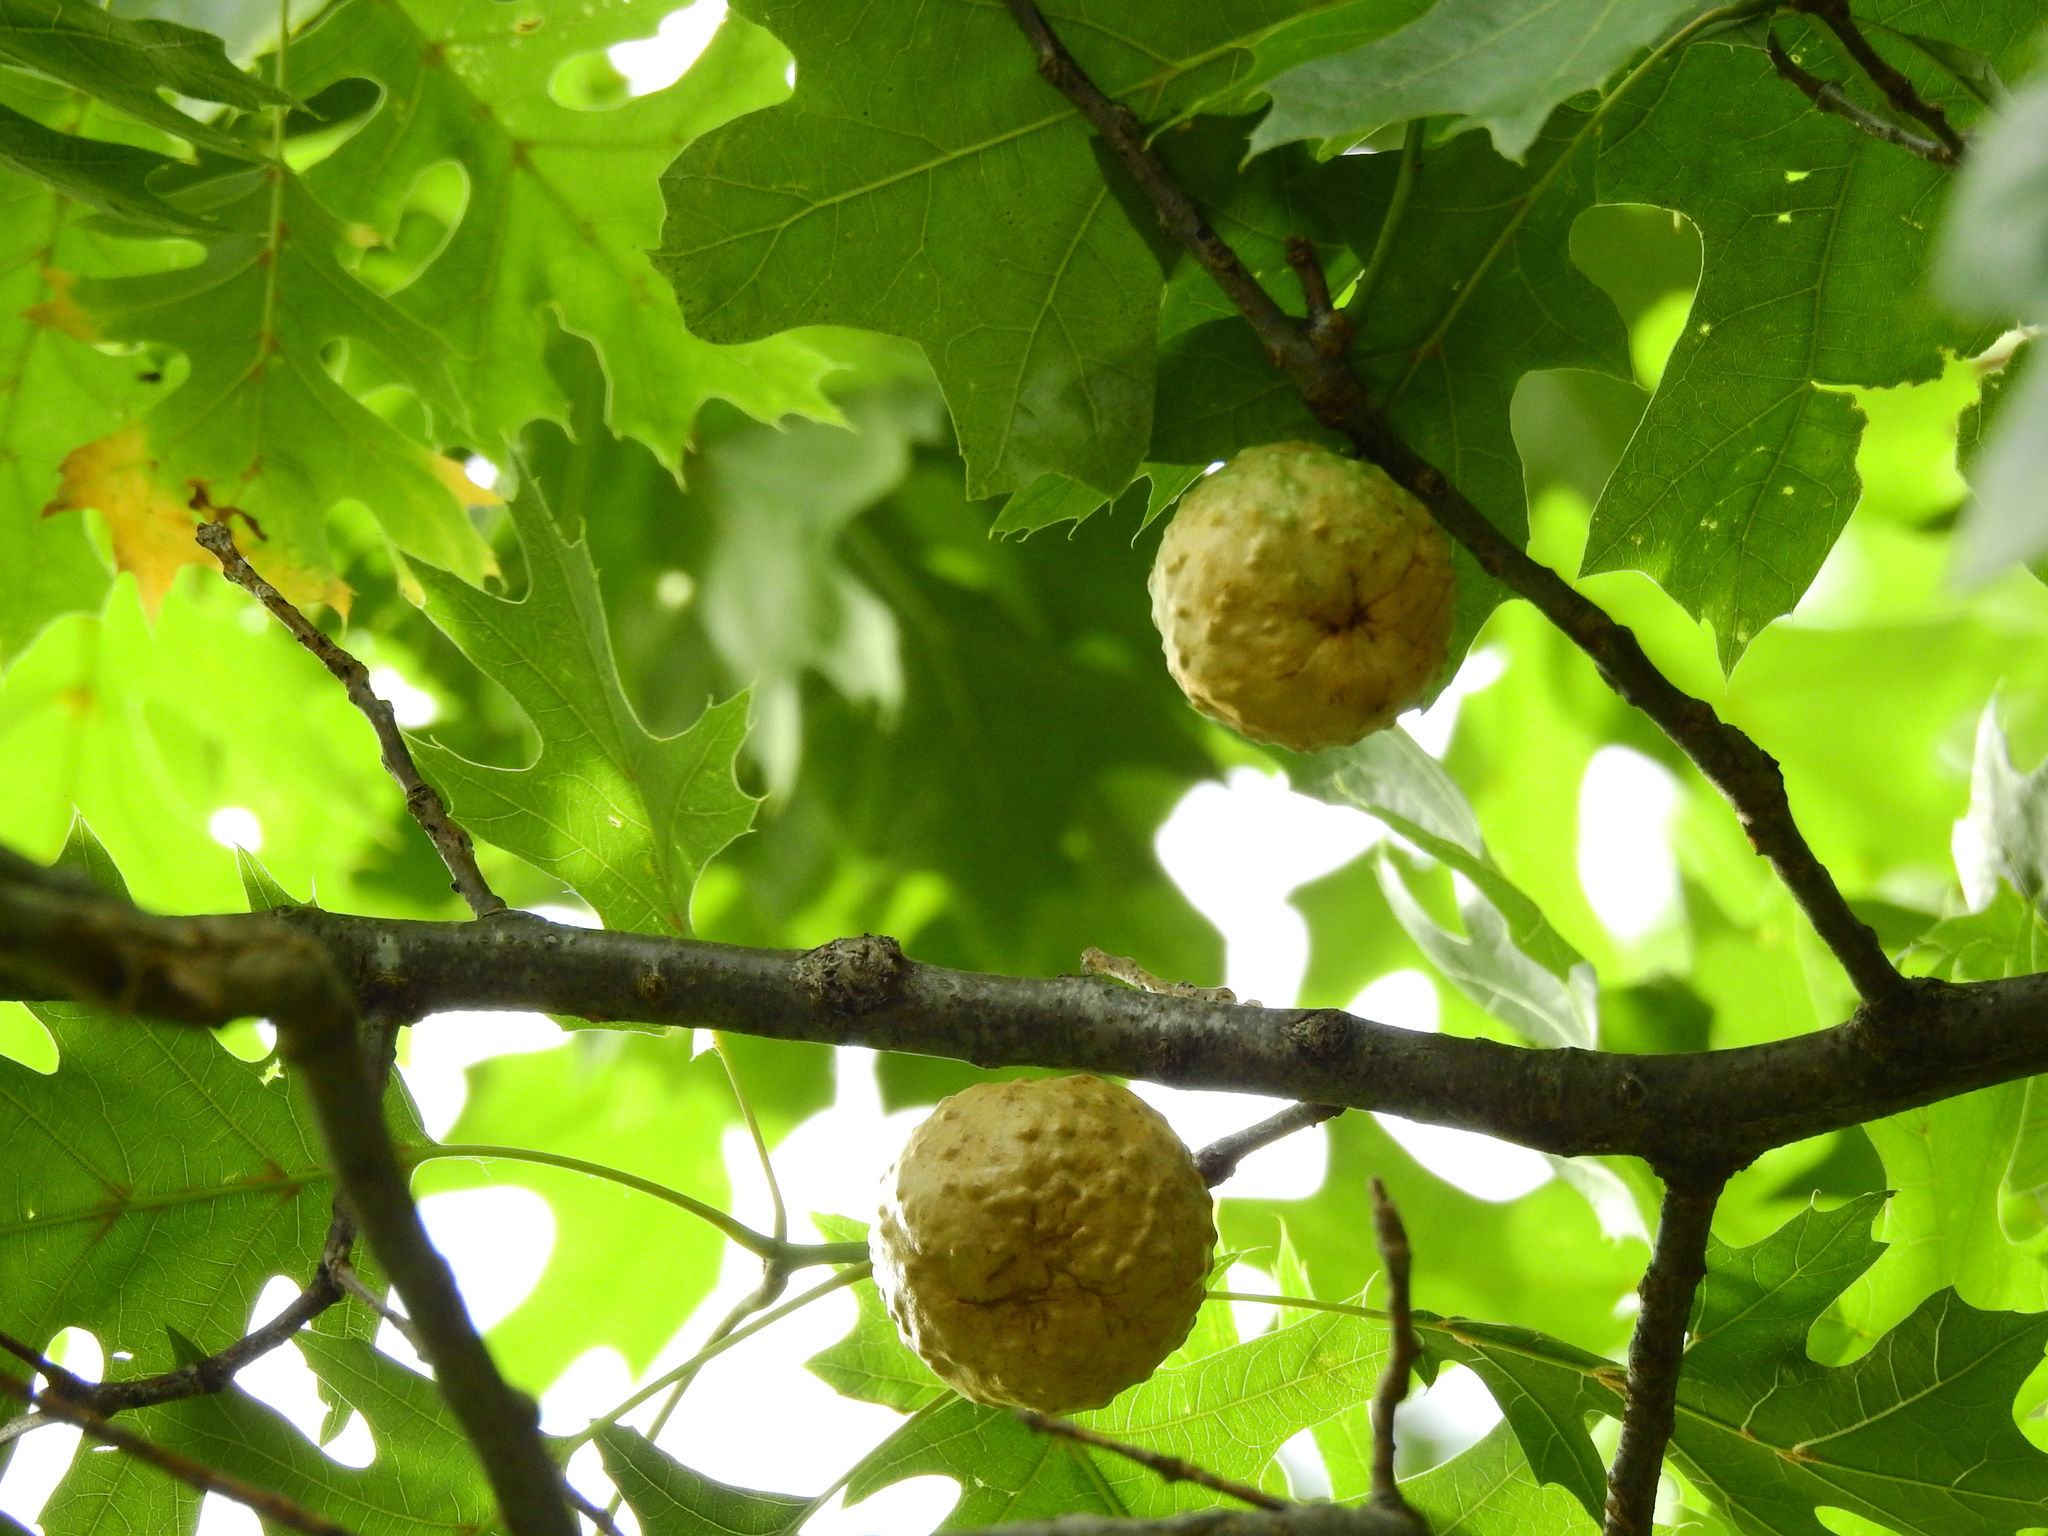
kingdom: Animalia
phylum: Arthropoda
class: Insecta
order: Hymenoptera
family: Cynipidae
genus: Amphibolips
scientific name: Amphibolips
